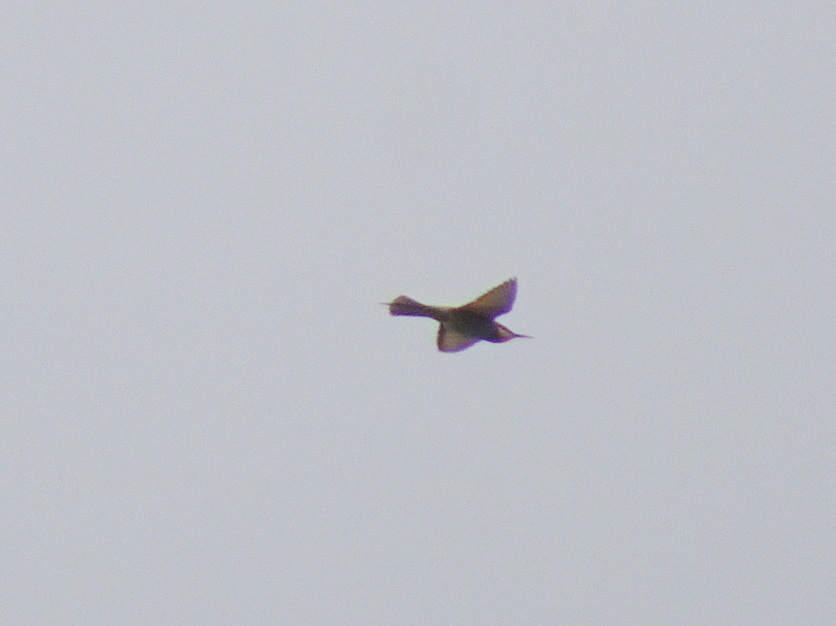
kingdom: Animalia
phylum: Chordata
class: Aves
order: Coraciiformes
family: Meropidae
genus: Merops
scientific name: Merops apiaster
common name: European bee-eater
